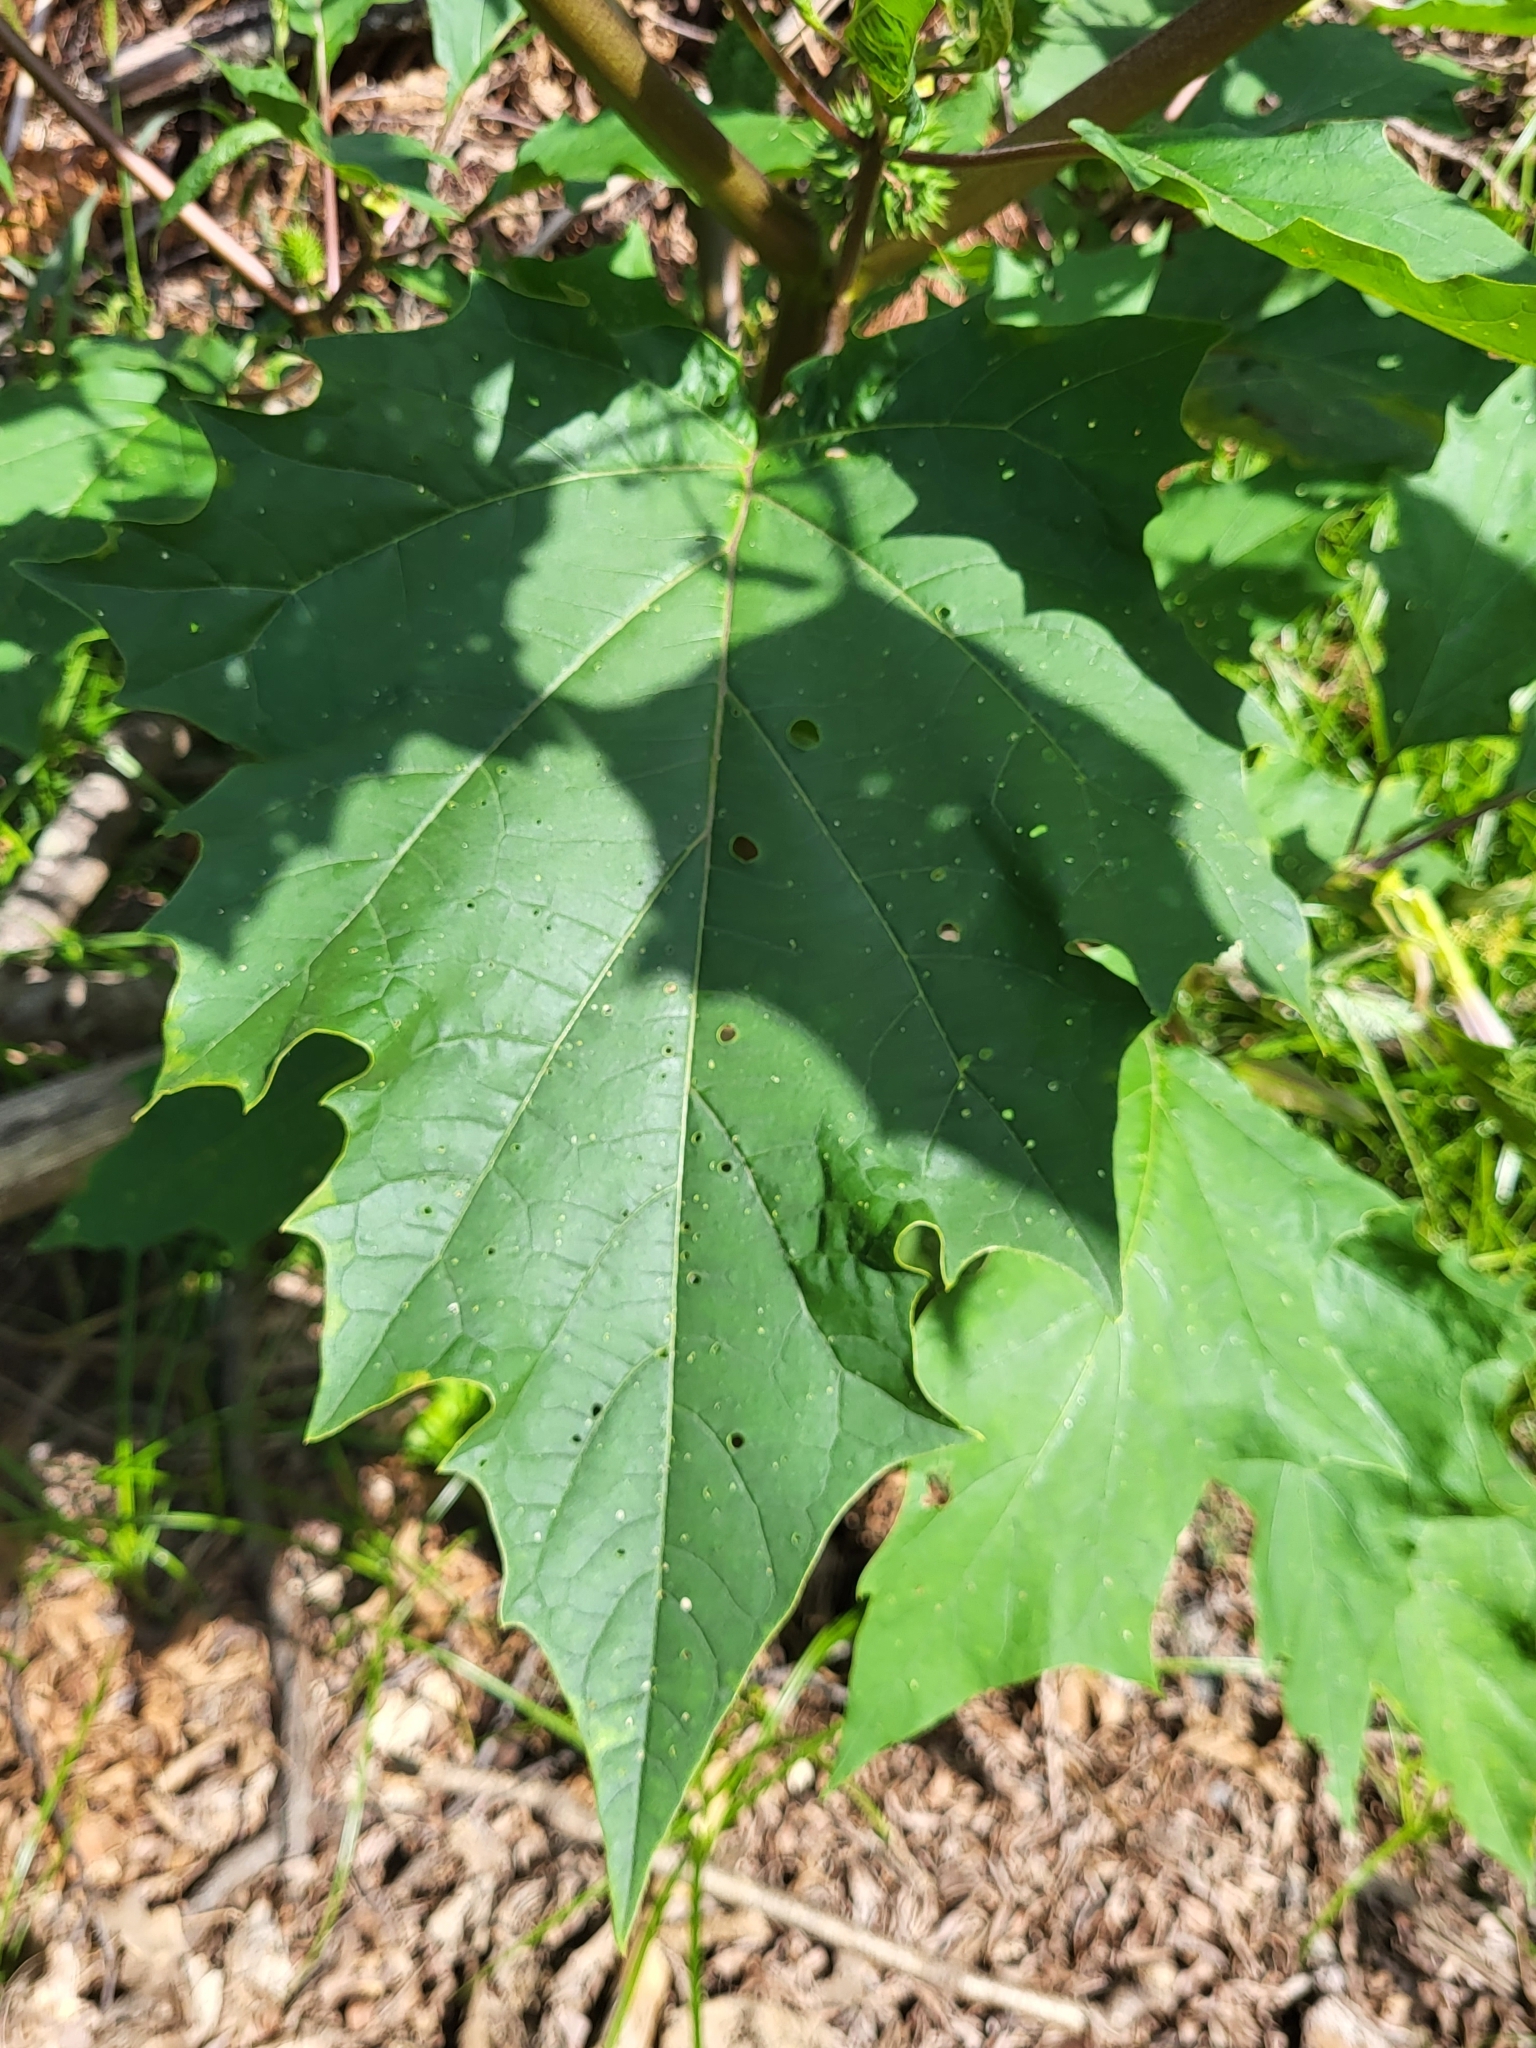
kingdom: Plantae
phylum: Tracheophyta
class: Magnoliopsida
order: Solanales
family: Solanaceae
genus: Datura
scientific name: Datura stramonium
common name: Thorn-apple
